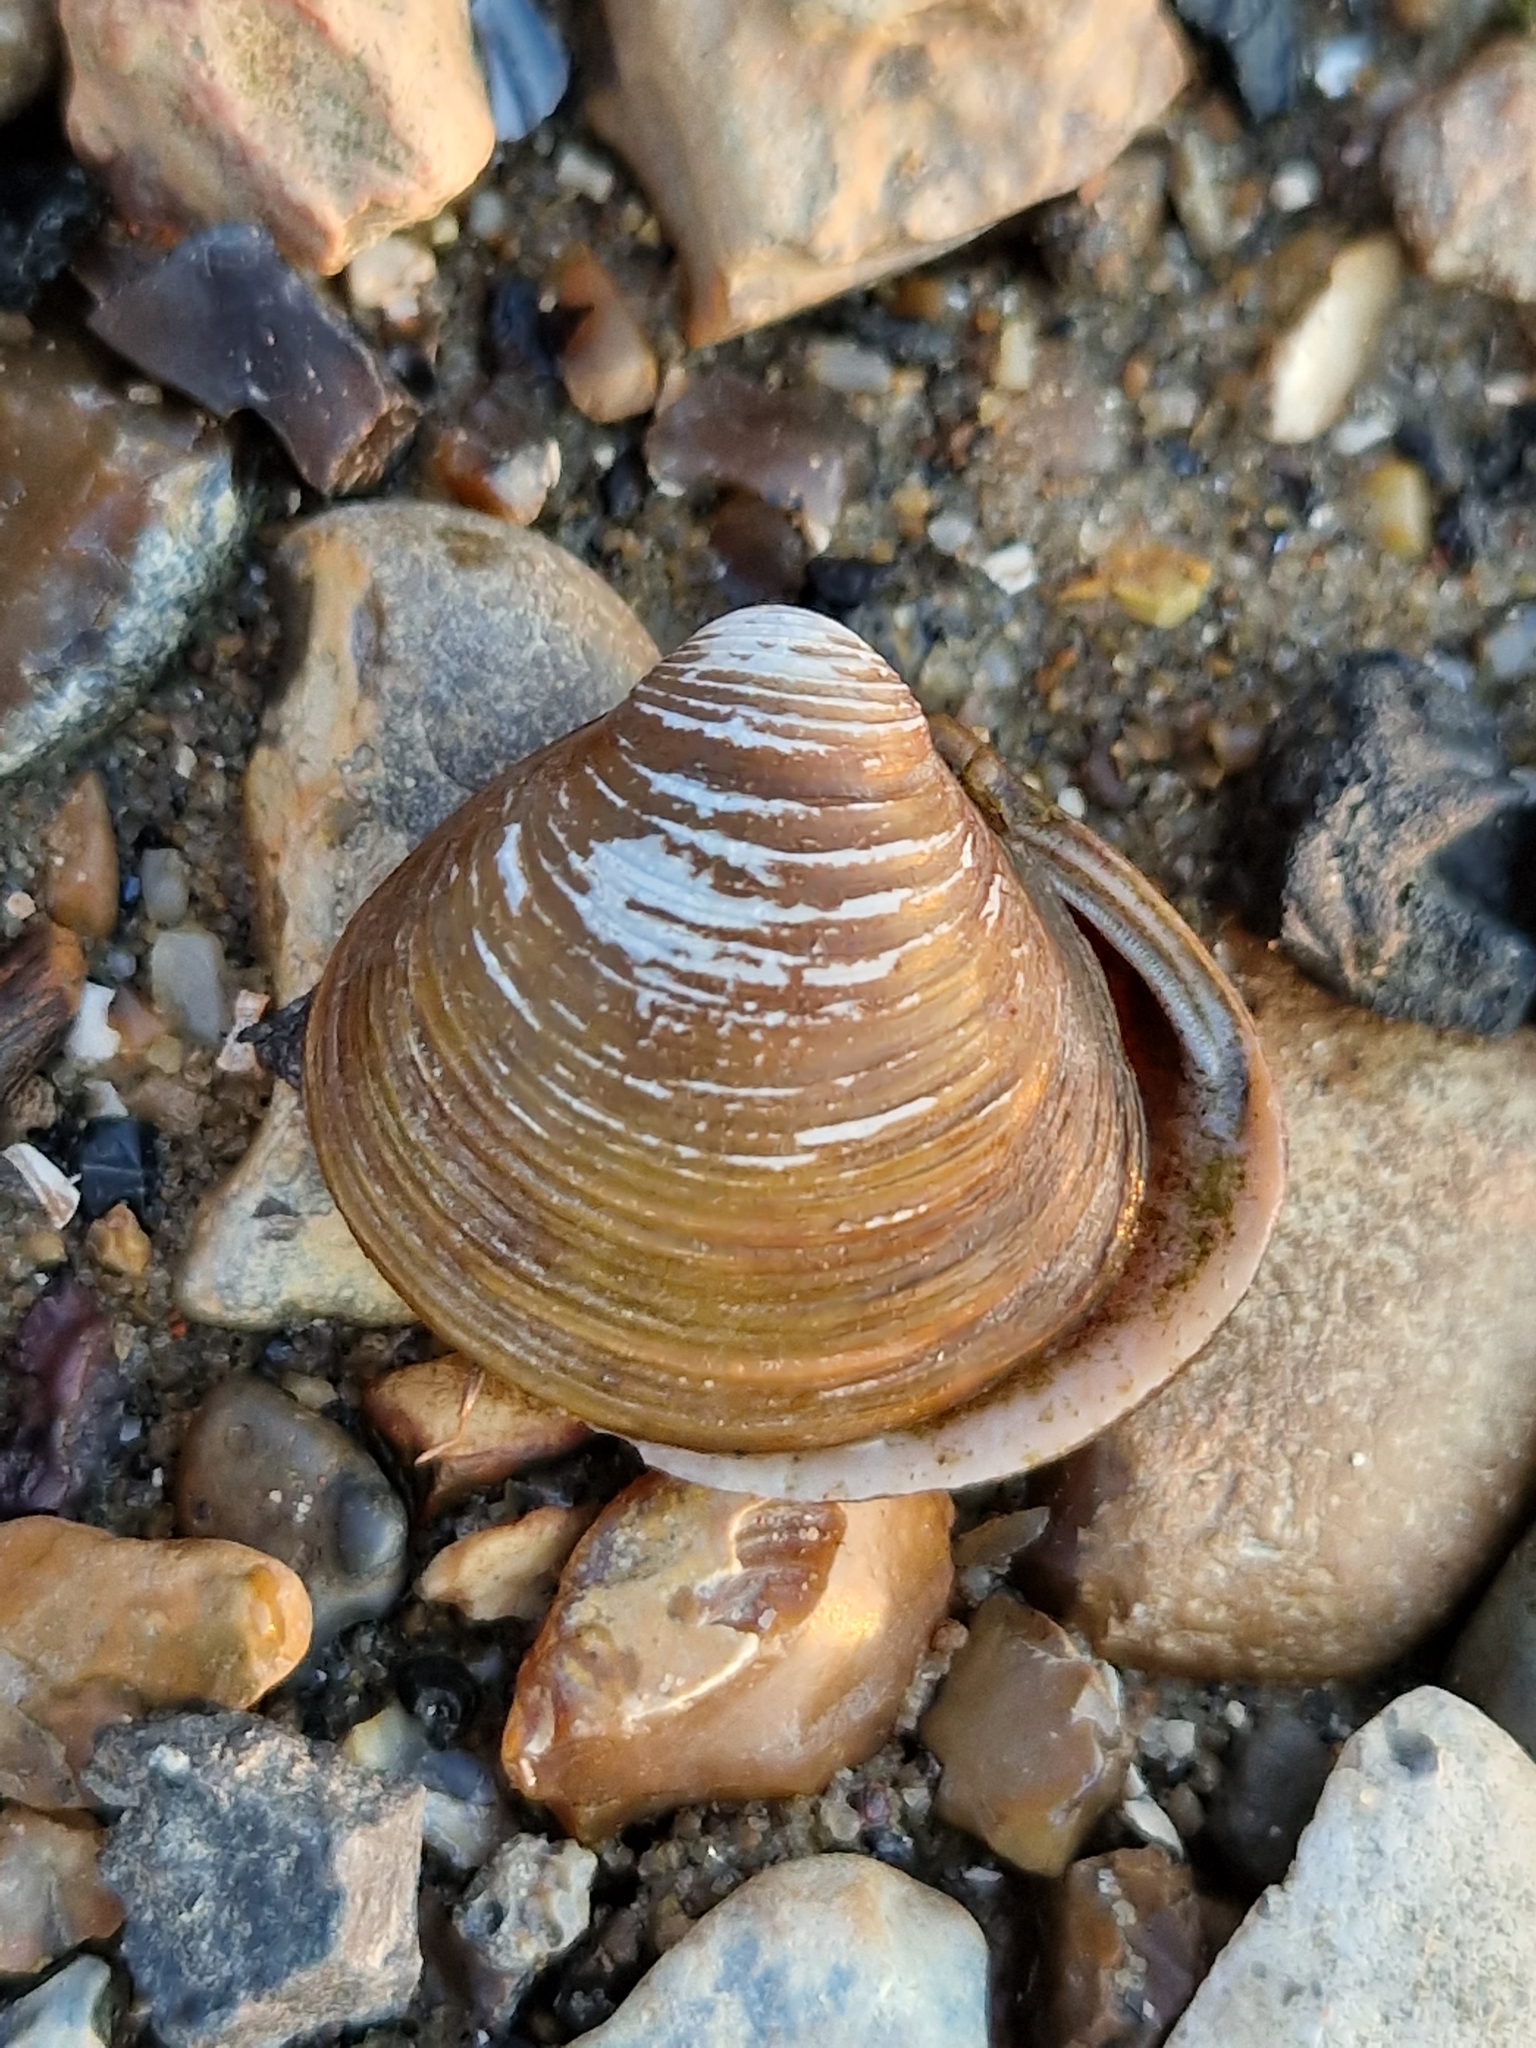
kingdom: Animalia
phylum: Mollusca
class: Bivalvia
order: Venerida
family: Cyrenidae
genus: Corbicula
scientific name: Corbicula fluminea
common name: Asian clam
